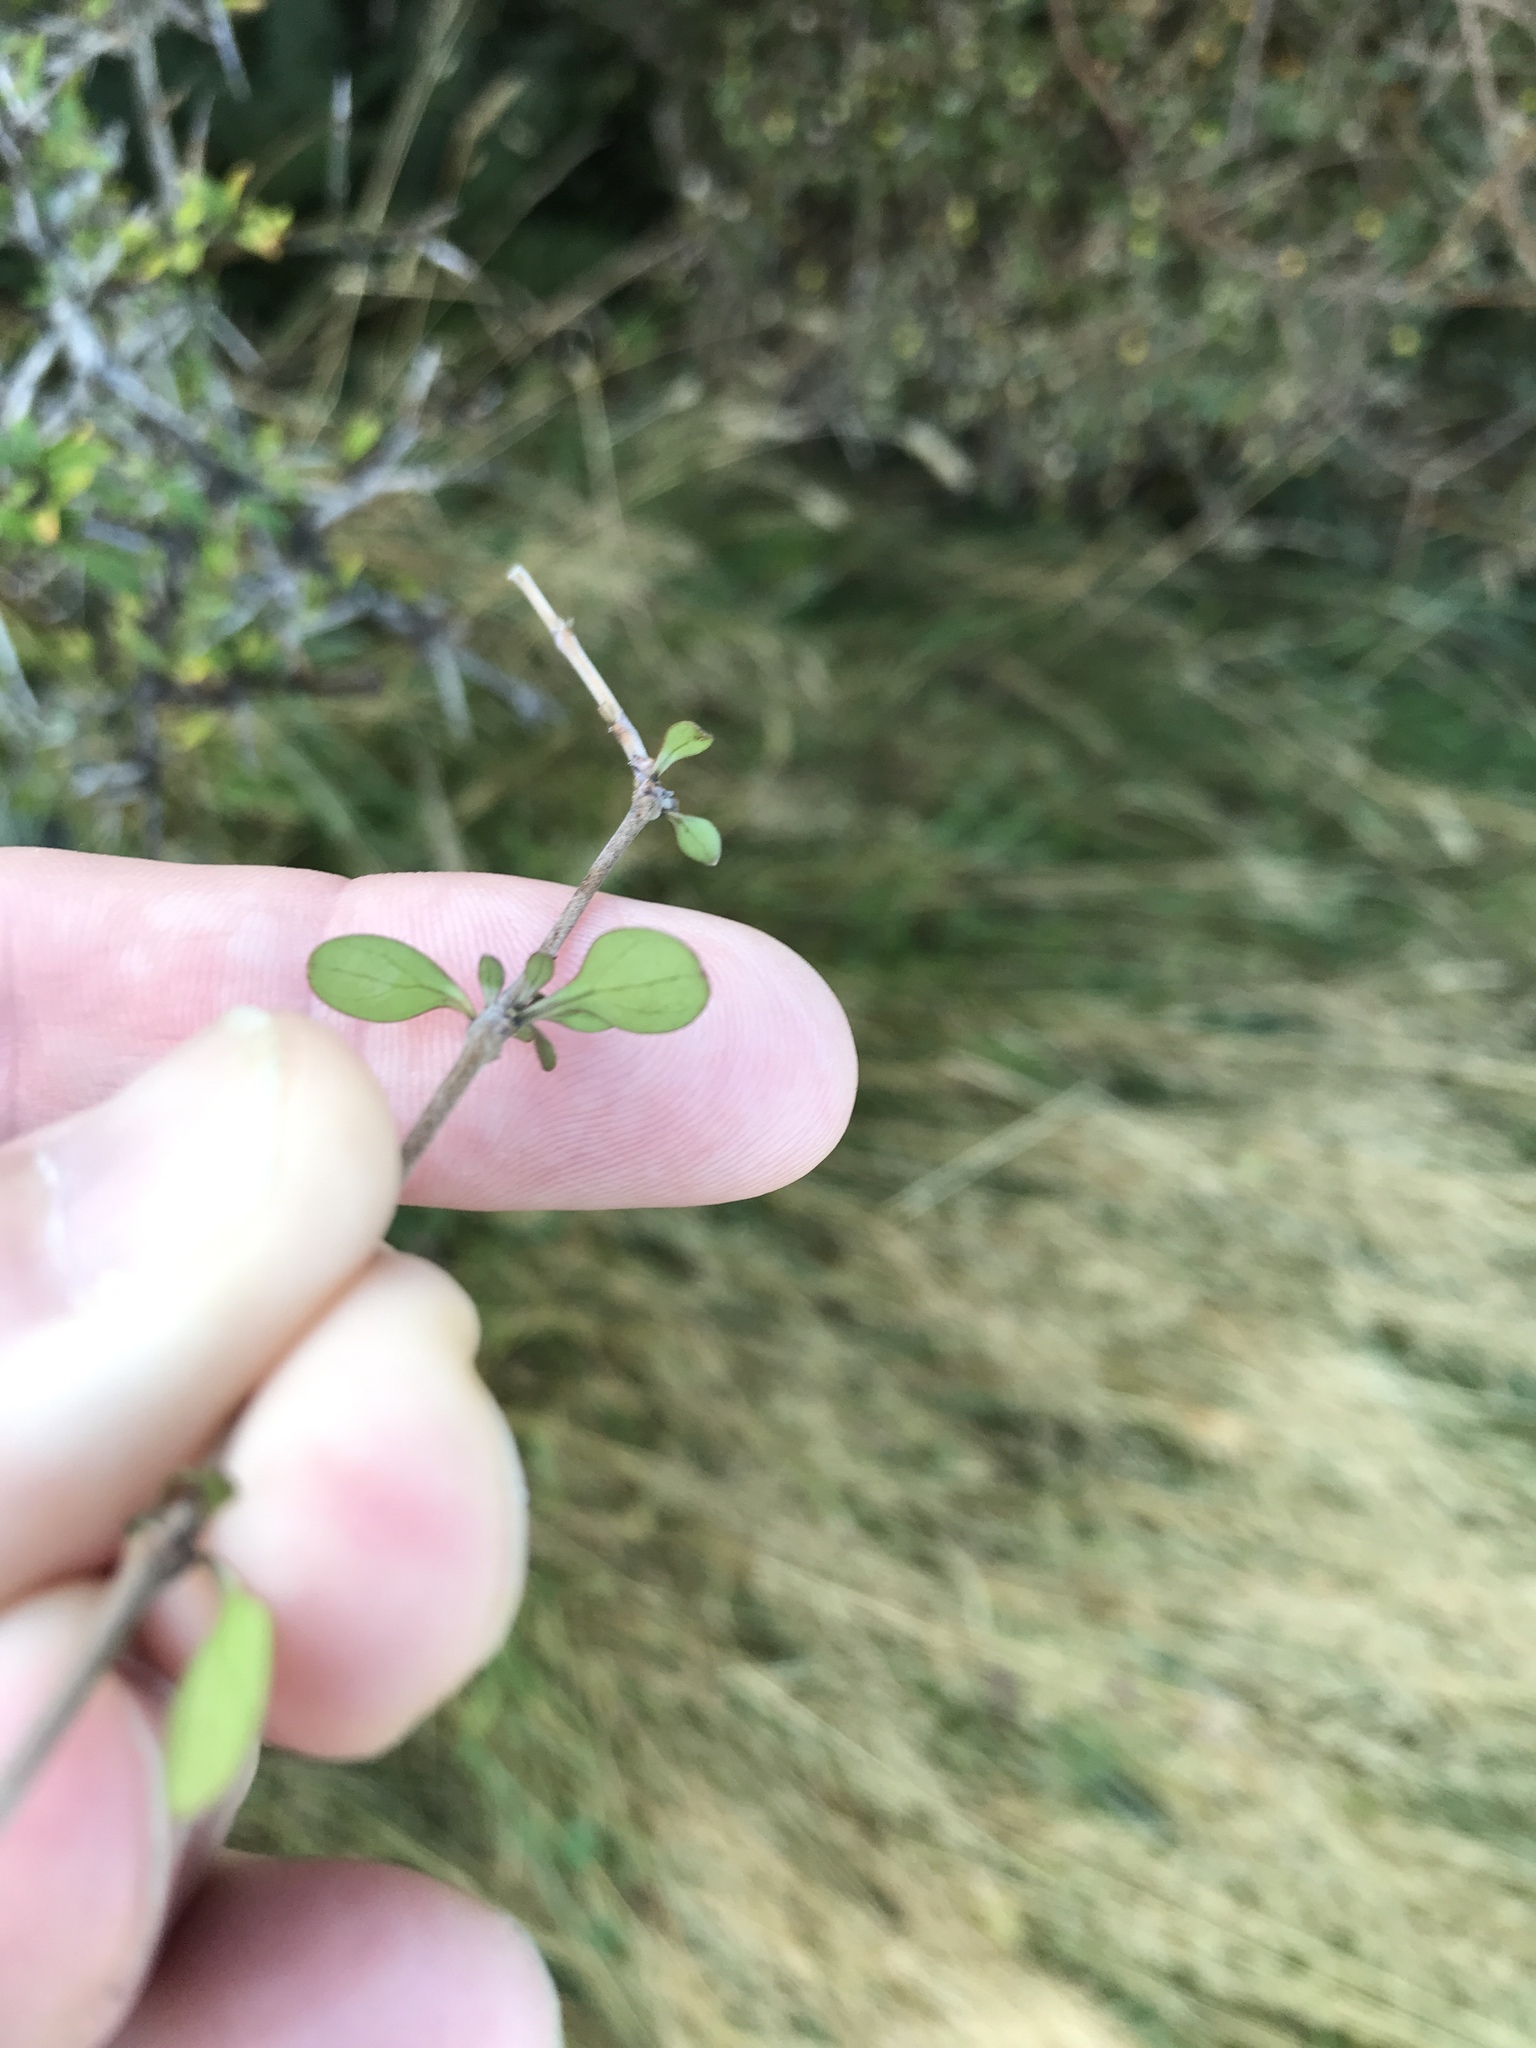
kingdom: Plantae
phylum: Tracheophyta
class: Magnoliopsida
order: Gentianales
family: Rubiaceae
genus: Coprosma
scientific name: Coprosma rigida
